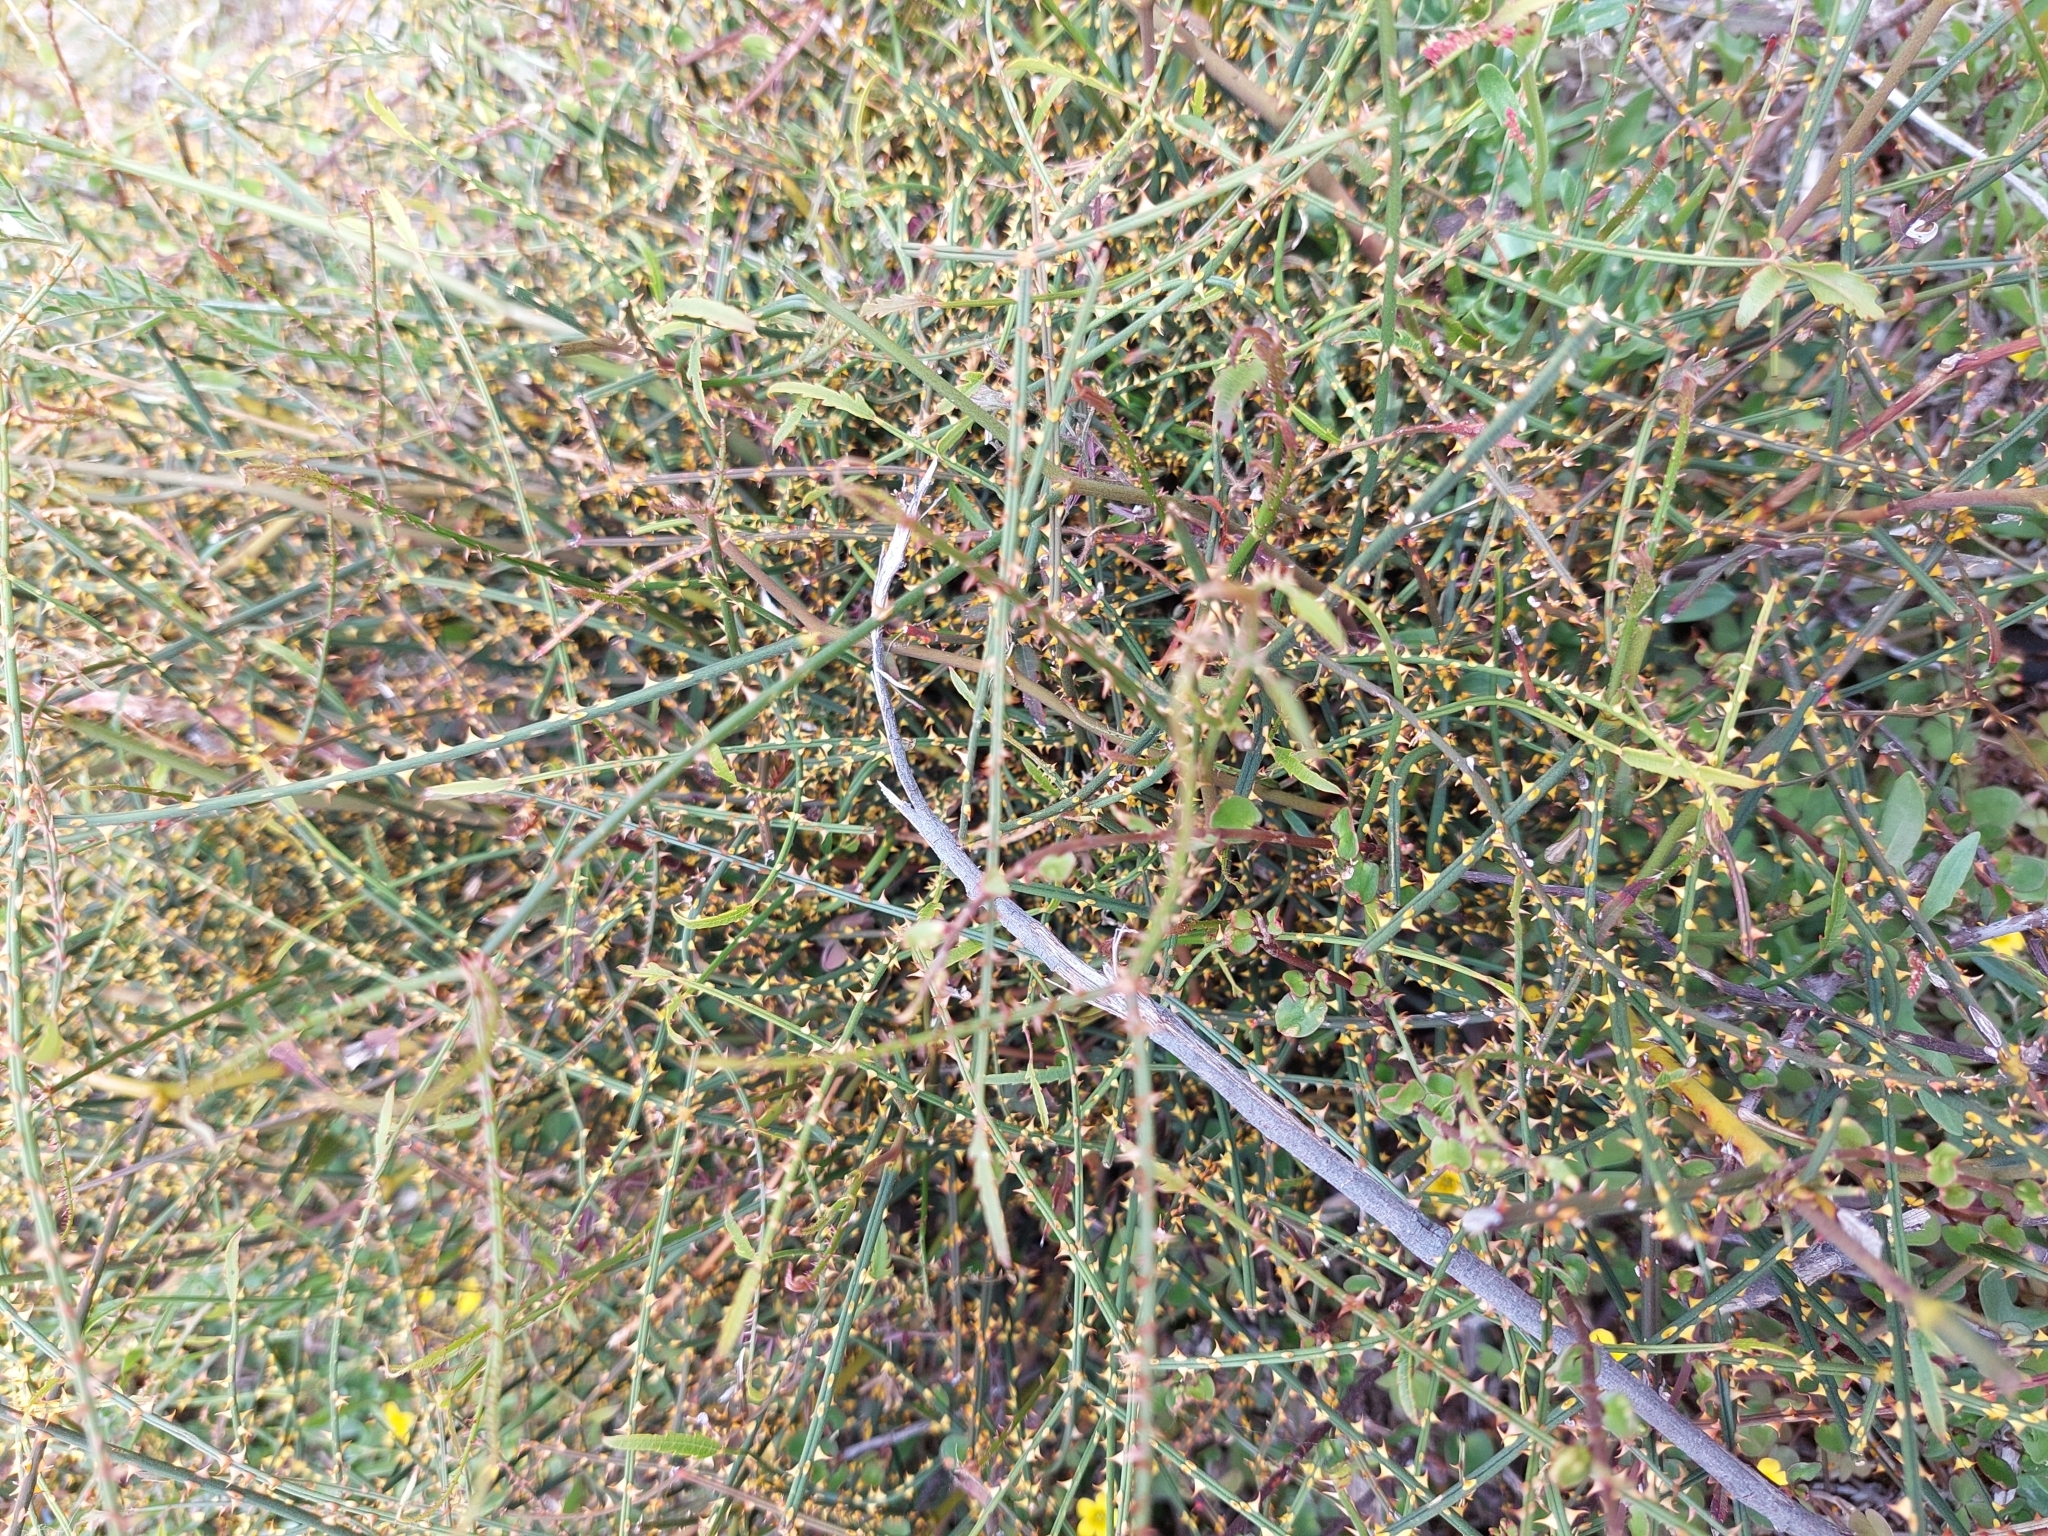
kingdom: Plantae
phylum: Tracheophyta
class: Magnoliopsida
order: Rosales
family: Rosaceae
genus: Rubus
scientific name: Rubus squarrosus
